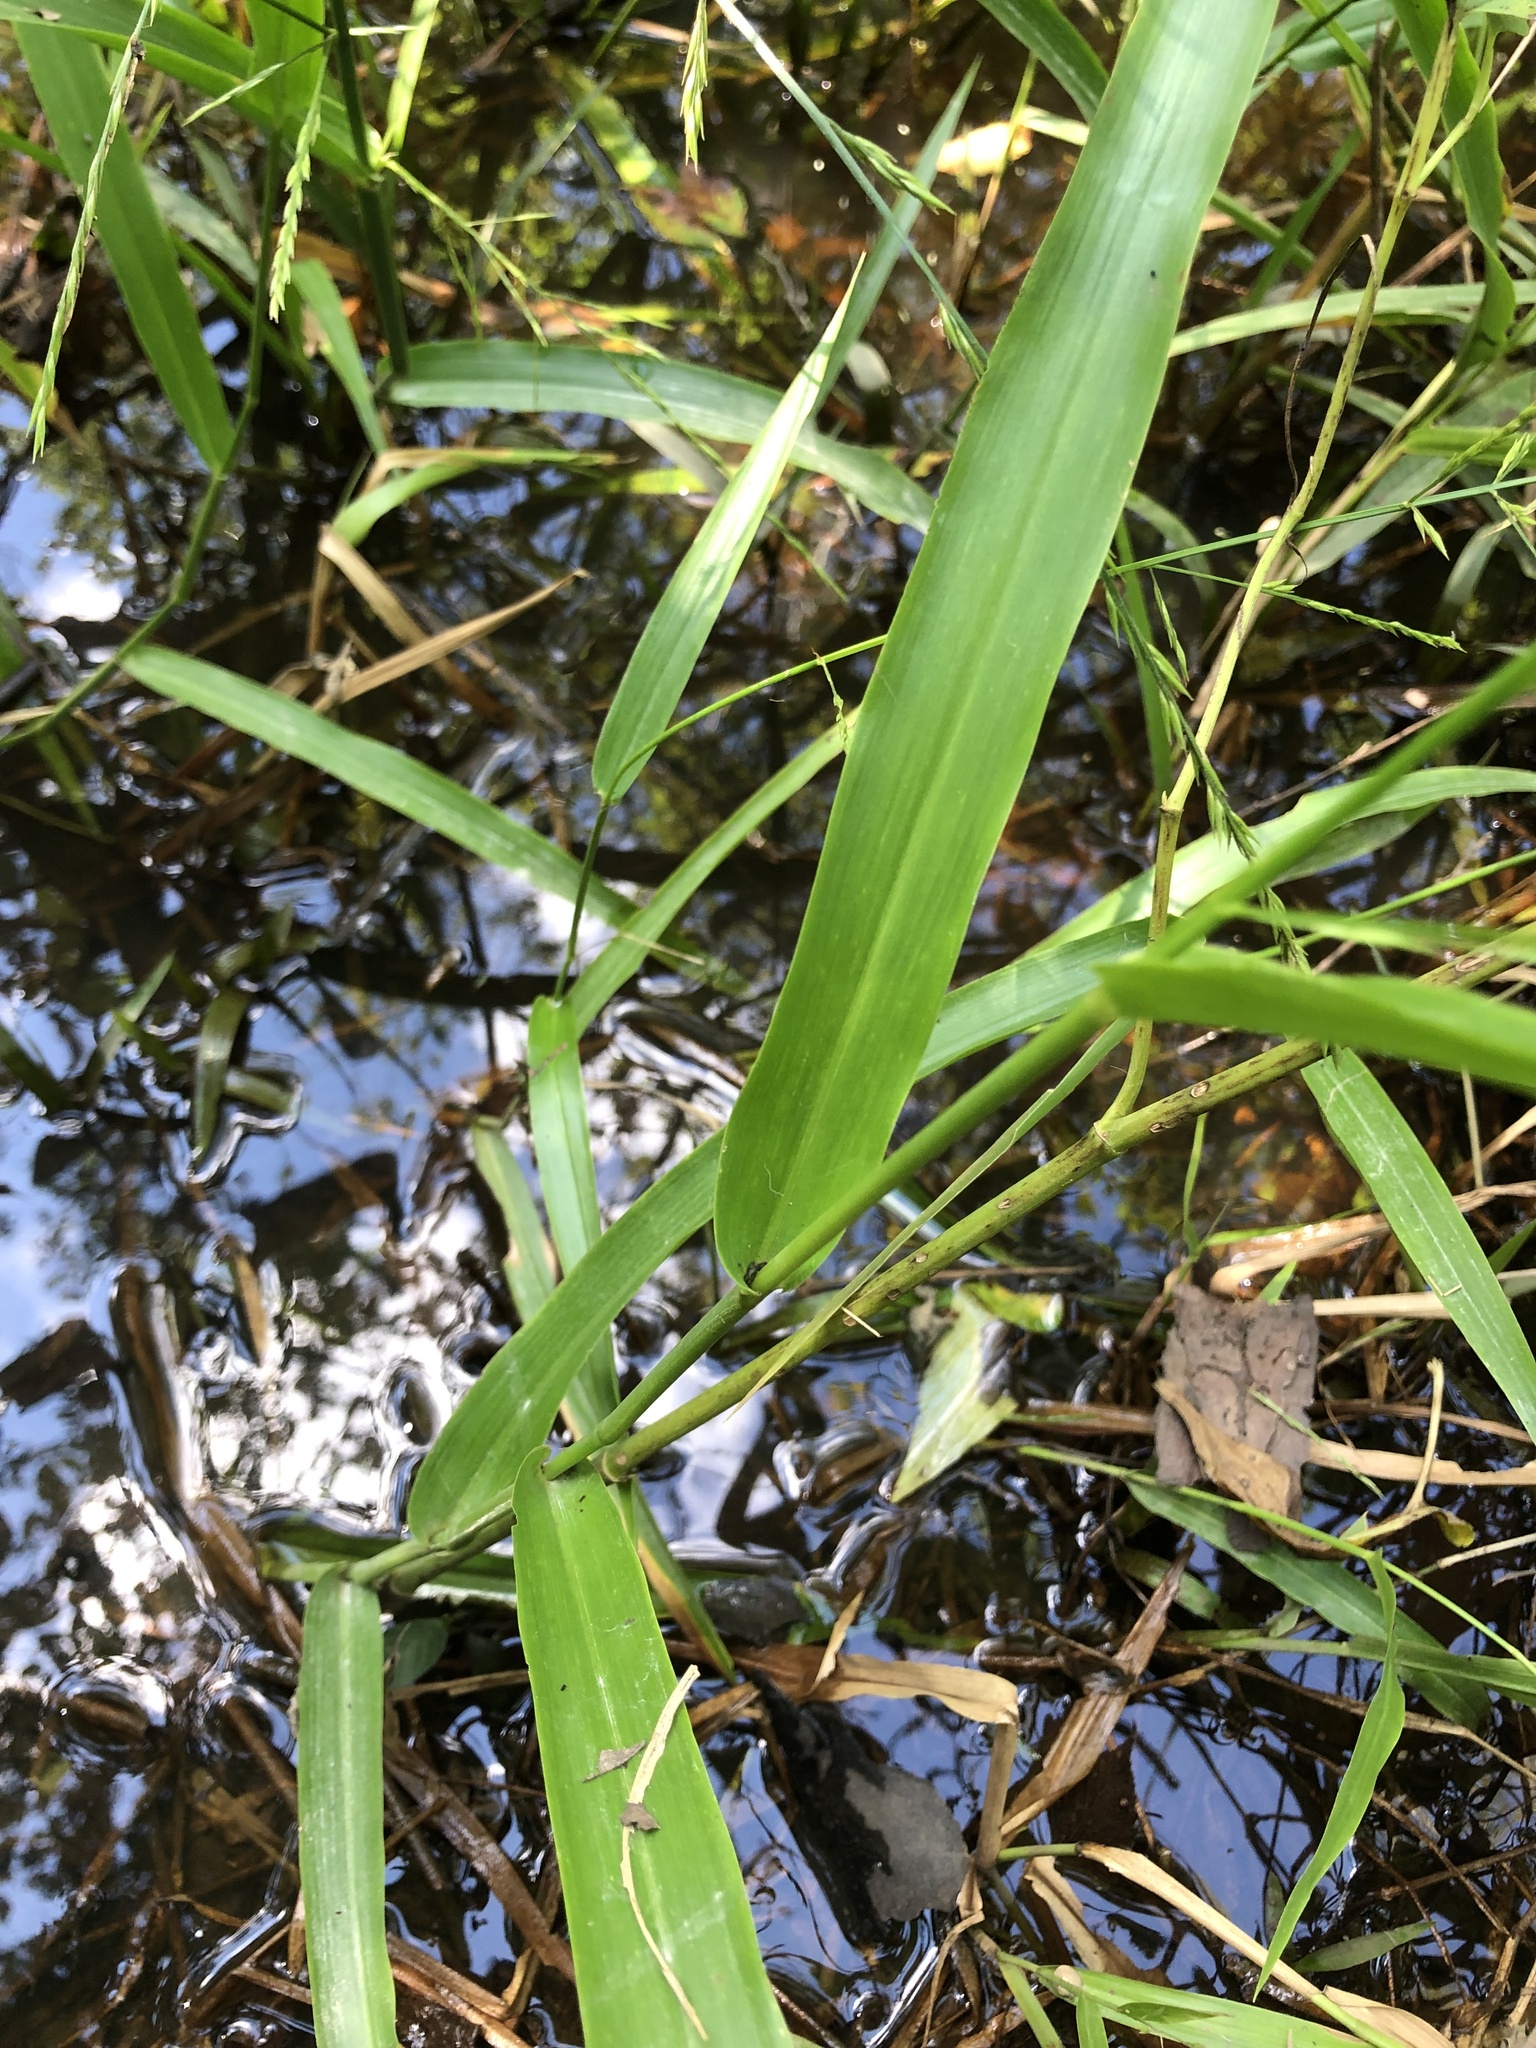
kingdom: Plantae
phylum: Tracheophyta
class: Liliopsida
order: Poales
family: Poaceae
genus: Panicum
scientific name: Panicum gymnocarpon
